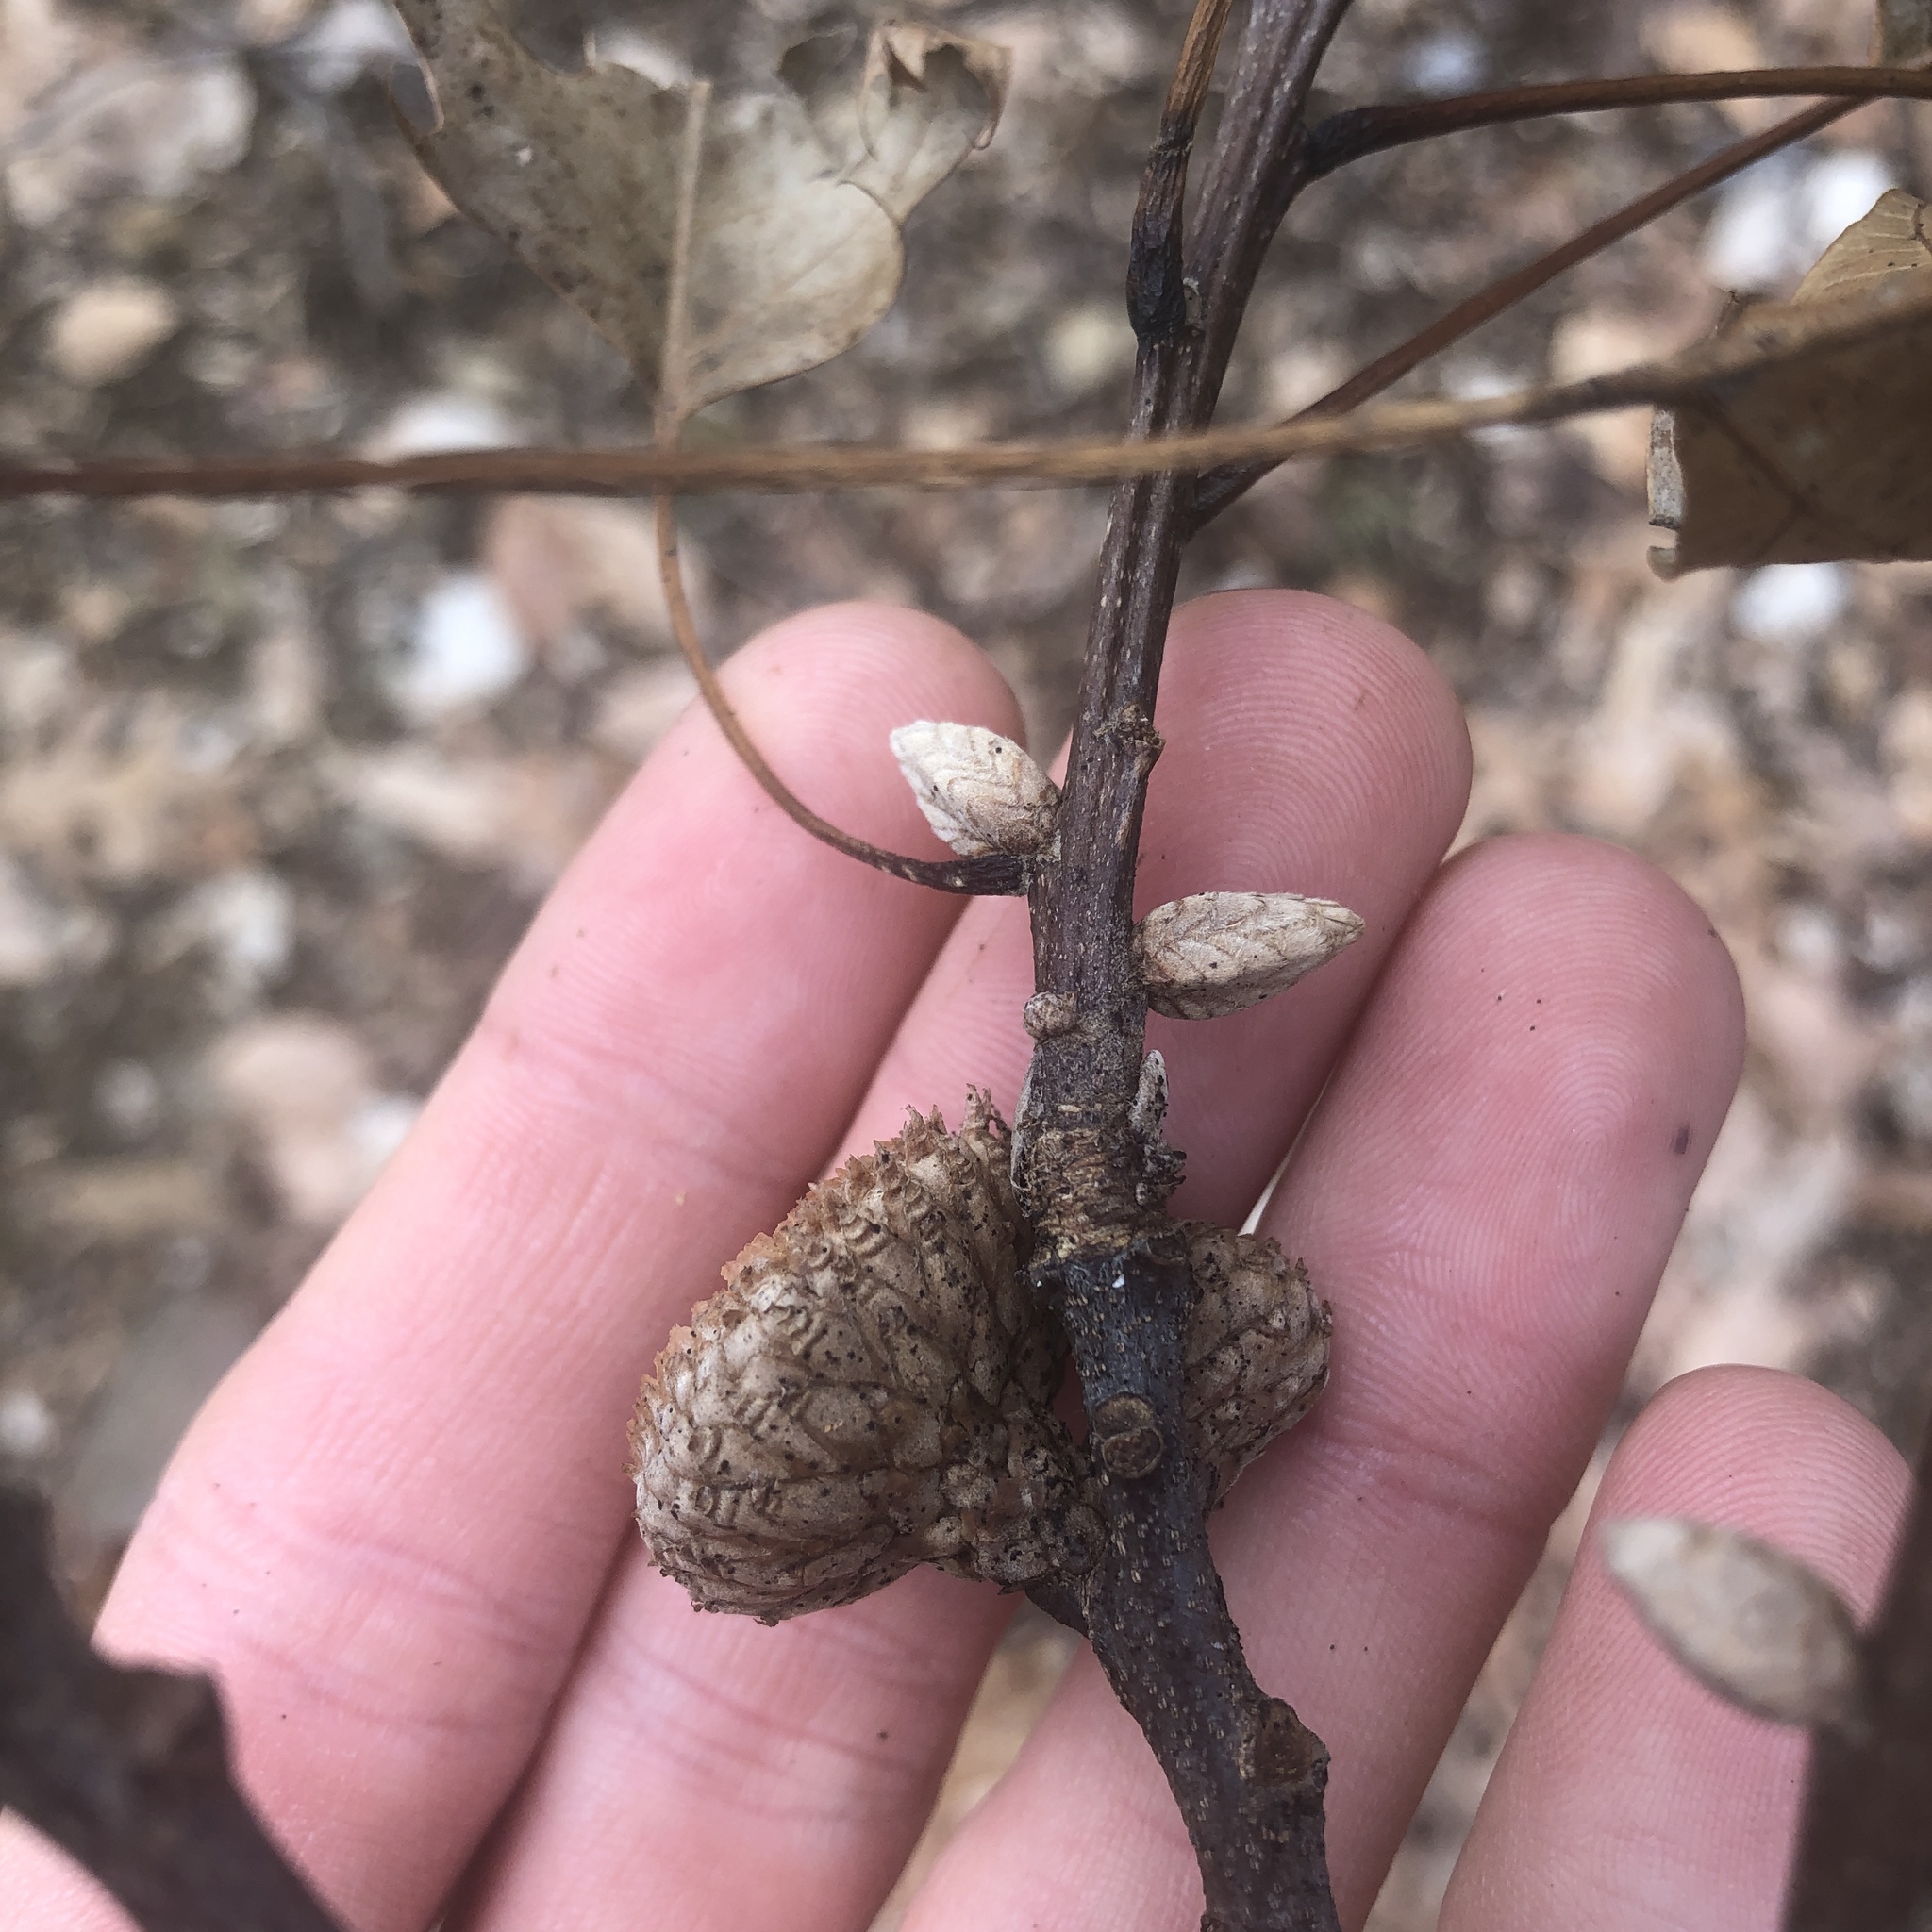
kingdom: Plantae
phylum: Tracheophyta
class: Magnoliopsida
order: Fagales
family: Fagaceae
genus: Quercus
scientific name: Quercus velutina
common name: Black oak
